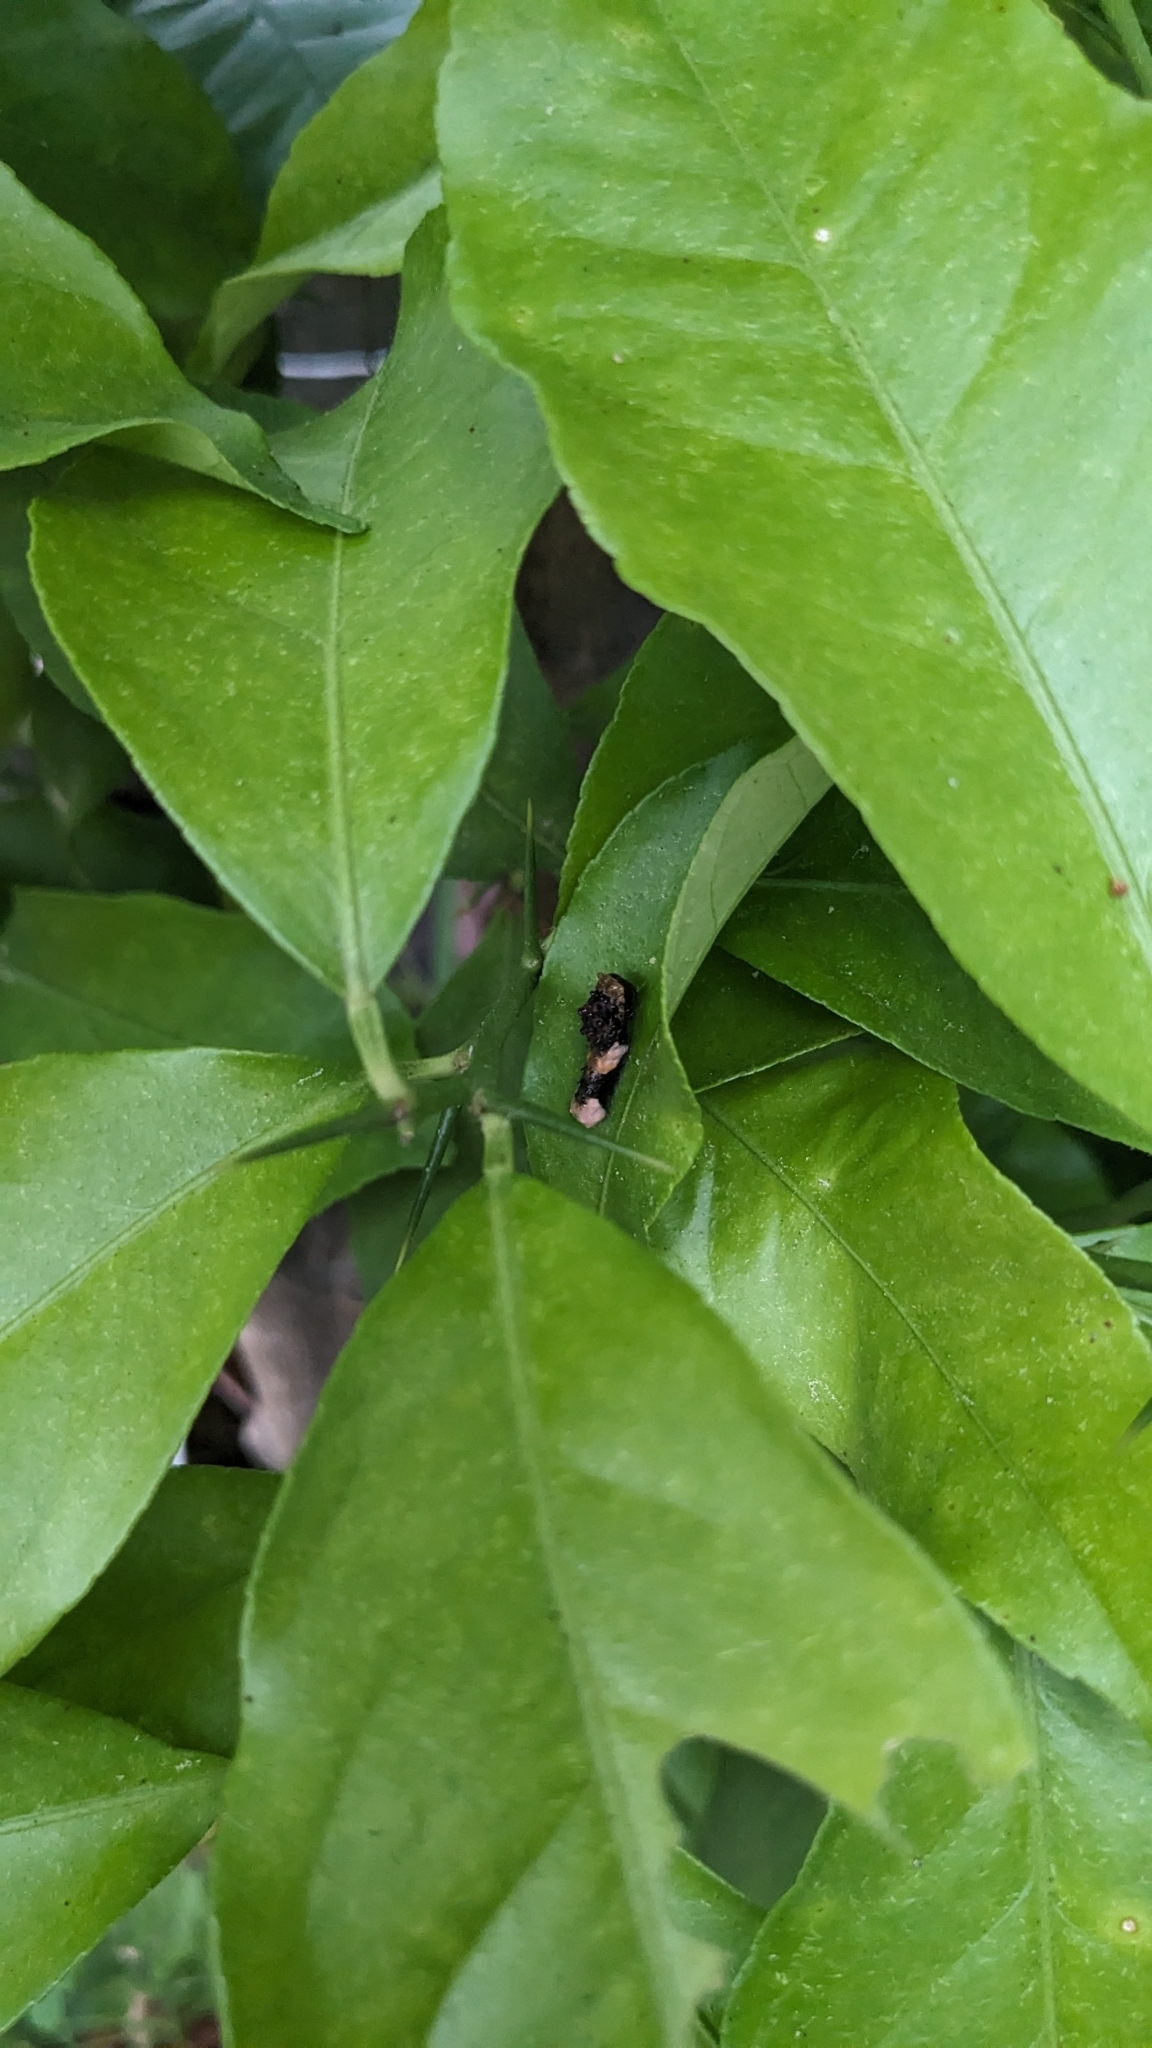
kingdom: Animalia
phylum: Arthropoda
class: Insecta
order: Lepidoptera
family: Papilionidae
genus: Papilio
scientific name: Papilio cresphontes
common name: Giant swallowtail
